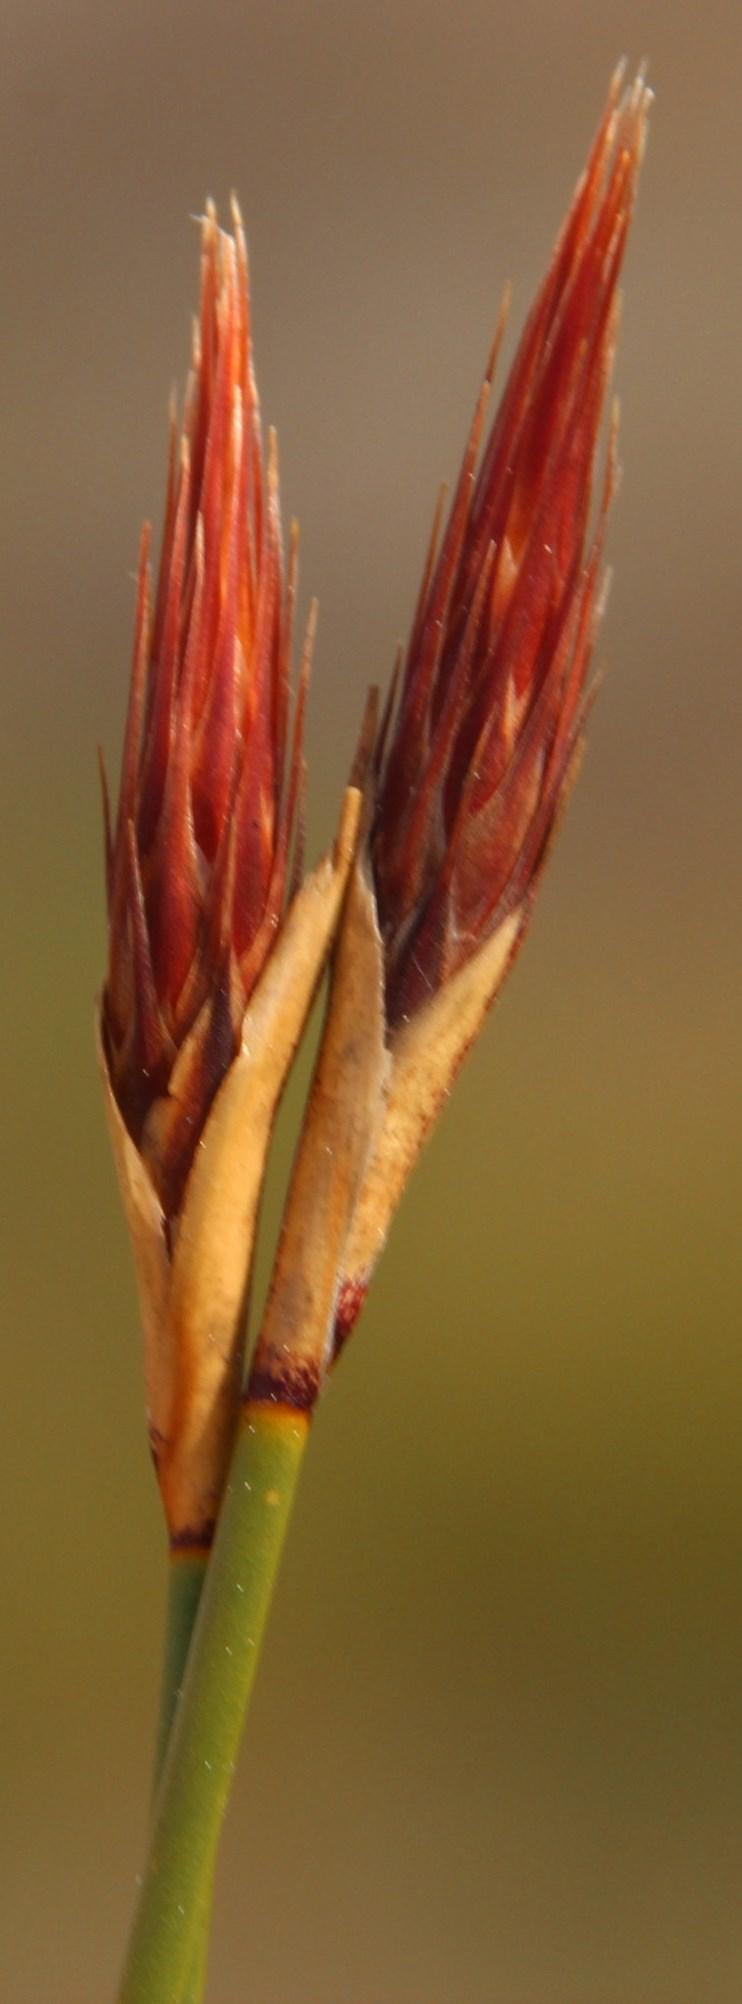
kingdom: Plantae
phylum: Tracheophyta
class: Liliopsida
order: Poales
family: Restionaceae
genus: Hypodiscus
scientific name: Hypodiscus aristatus
